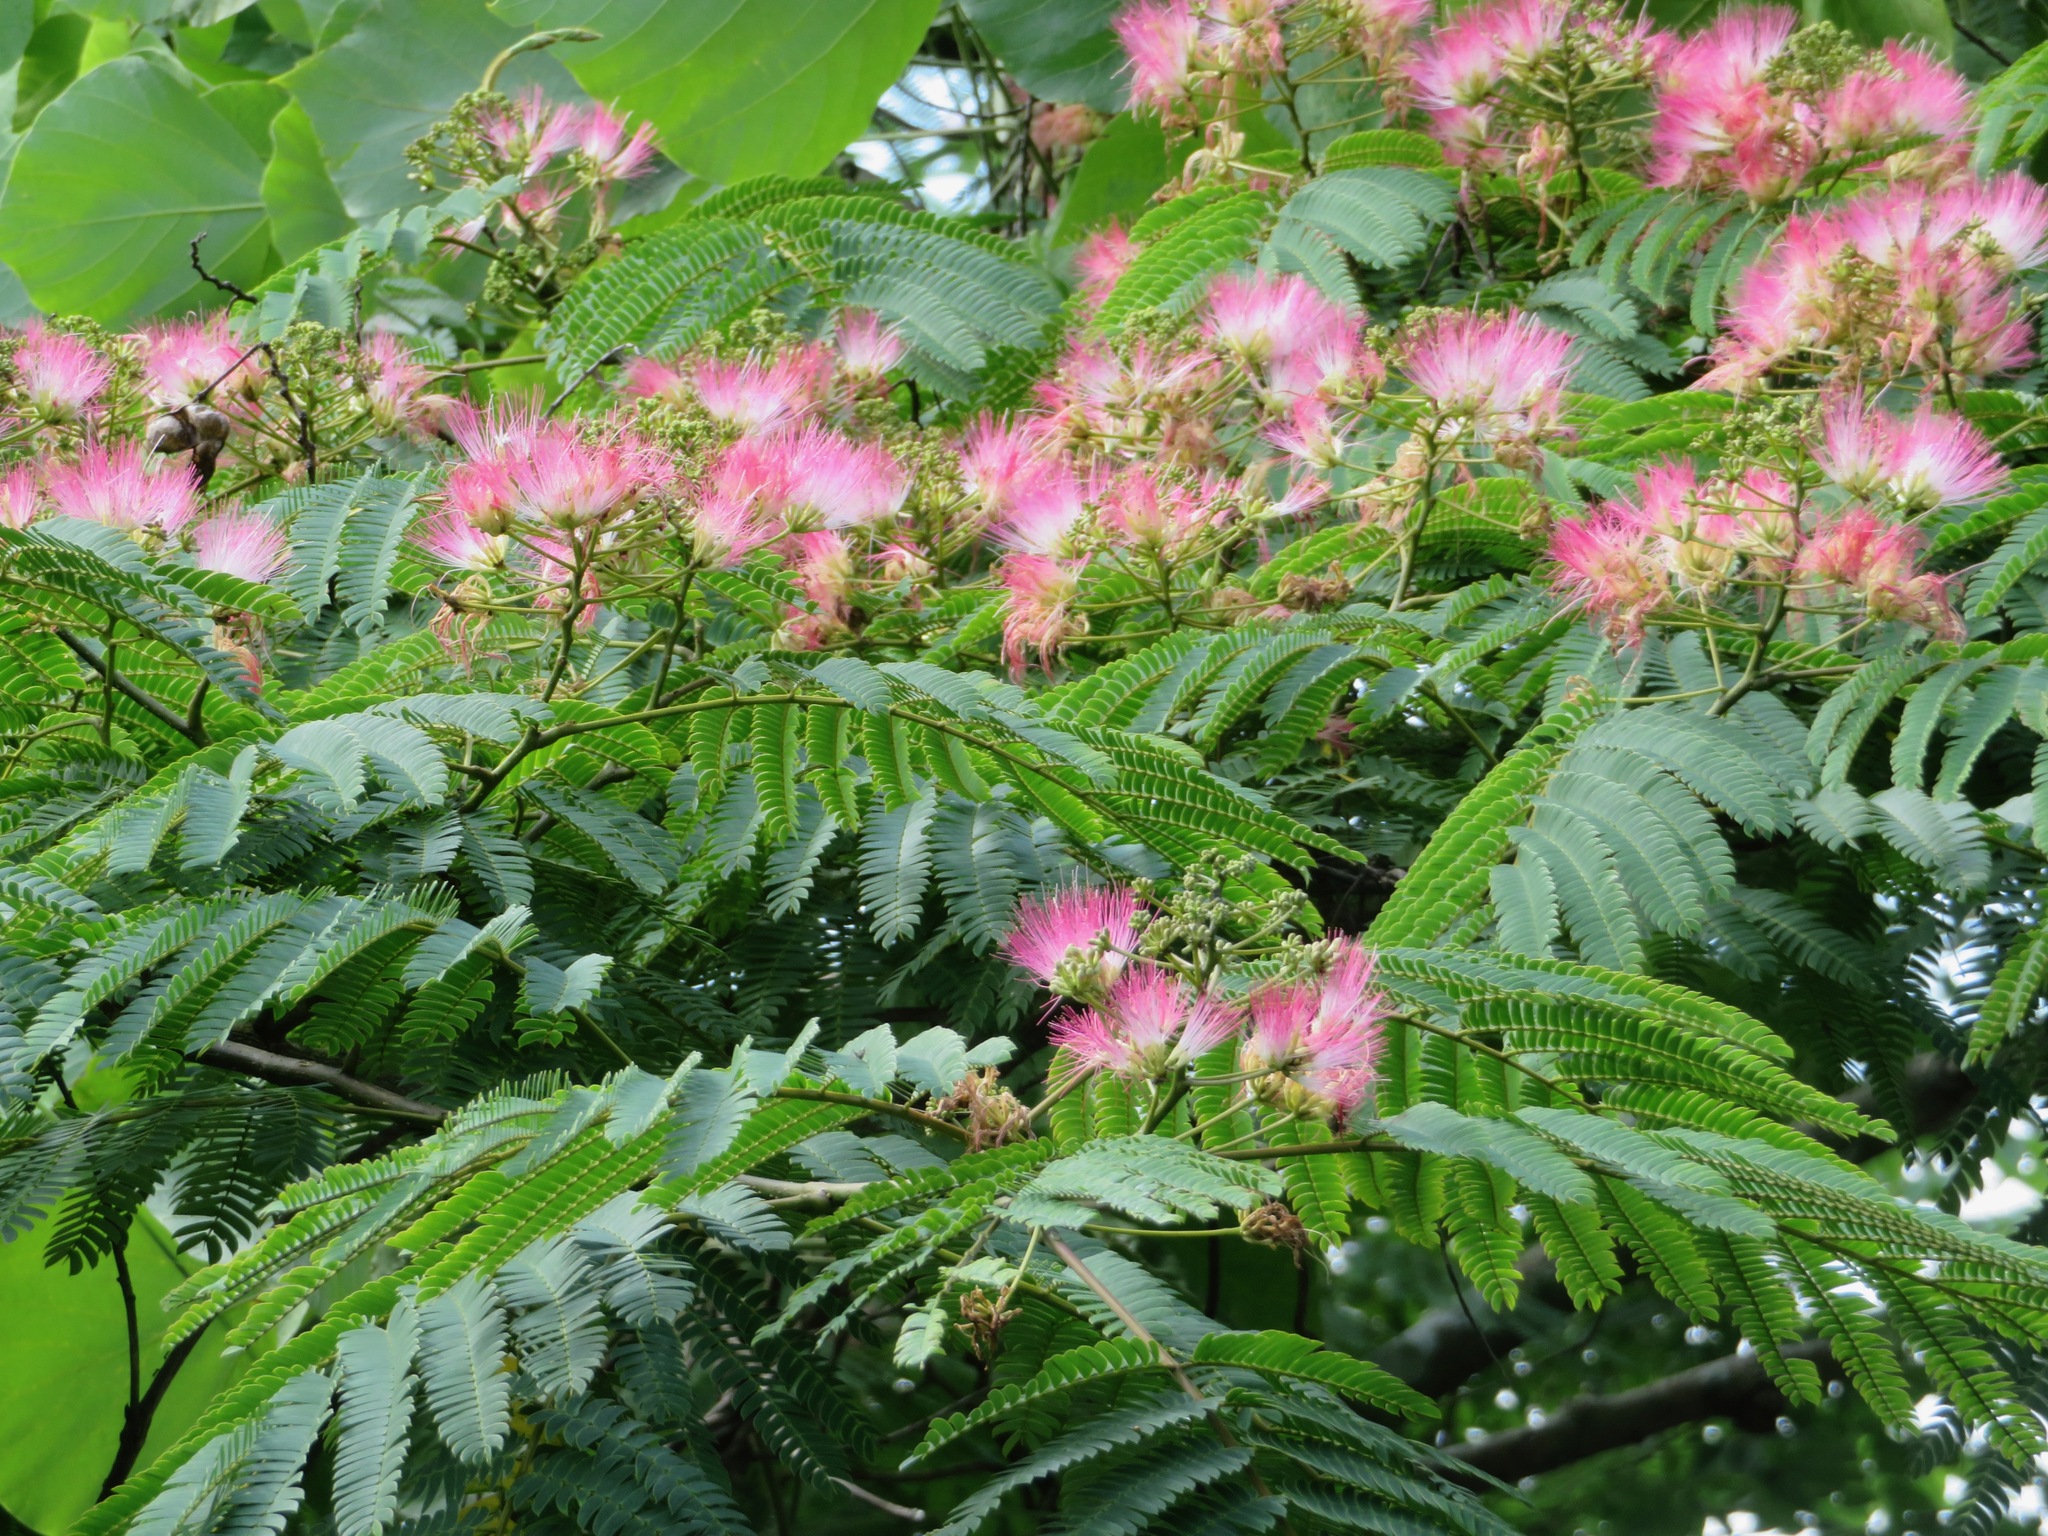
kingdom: Plantae
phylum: Tracheophyta
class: Magnoliopsida
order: Fabales
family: Fabaceae
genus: Albizia
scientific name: Albizia julibrissin
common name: Silktree
